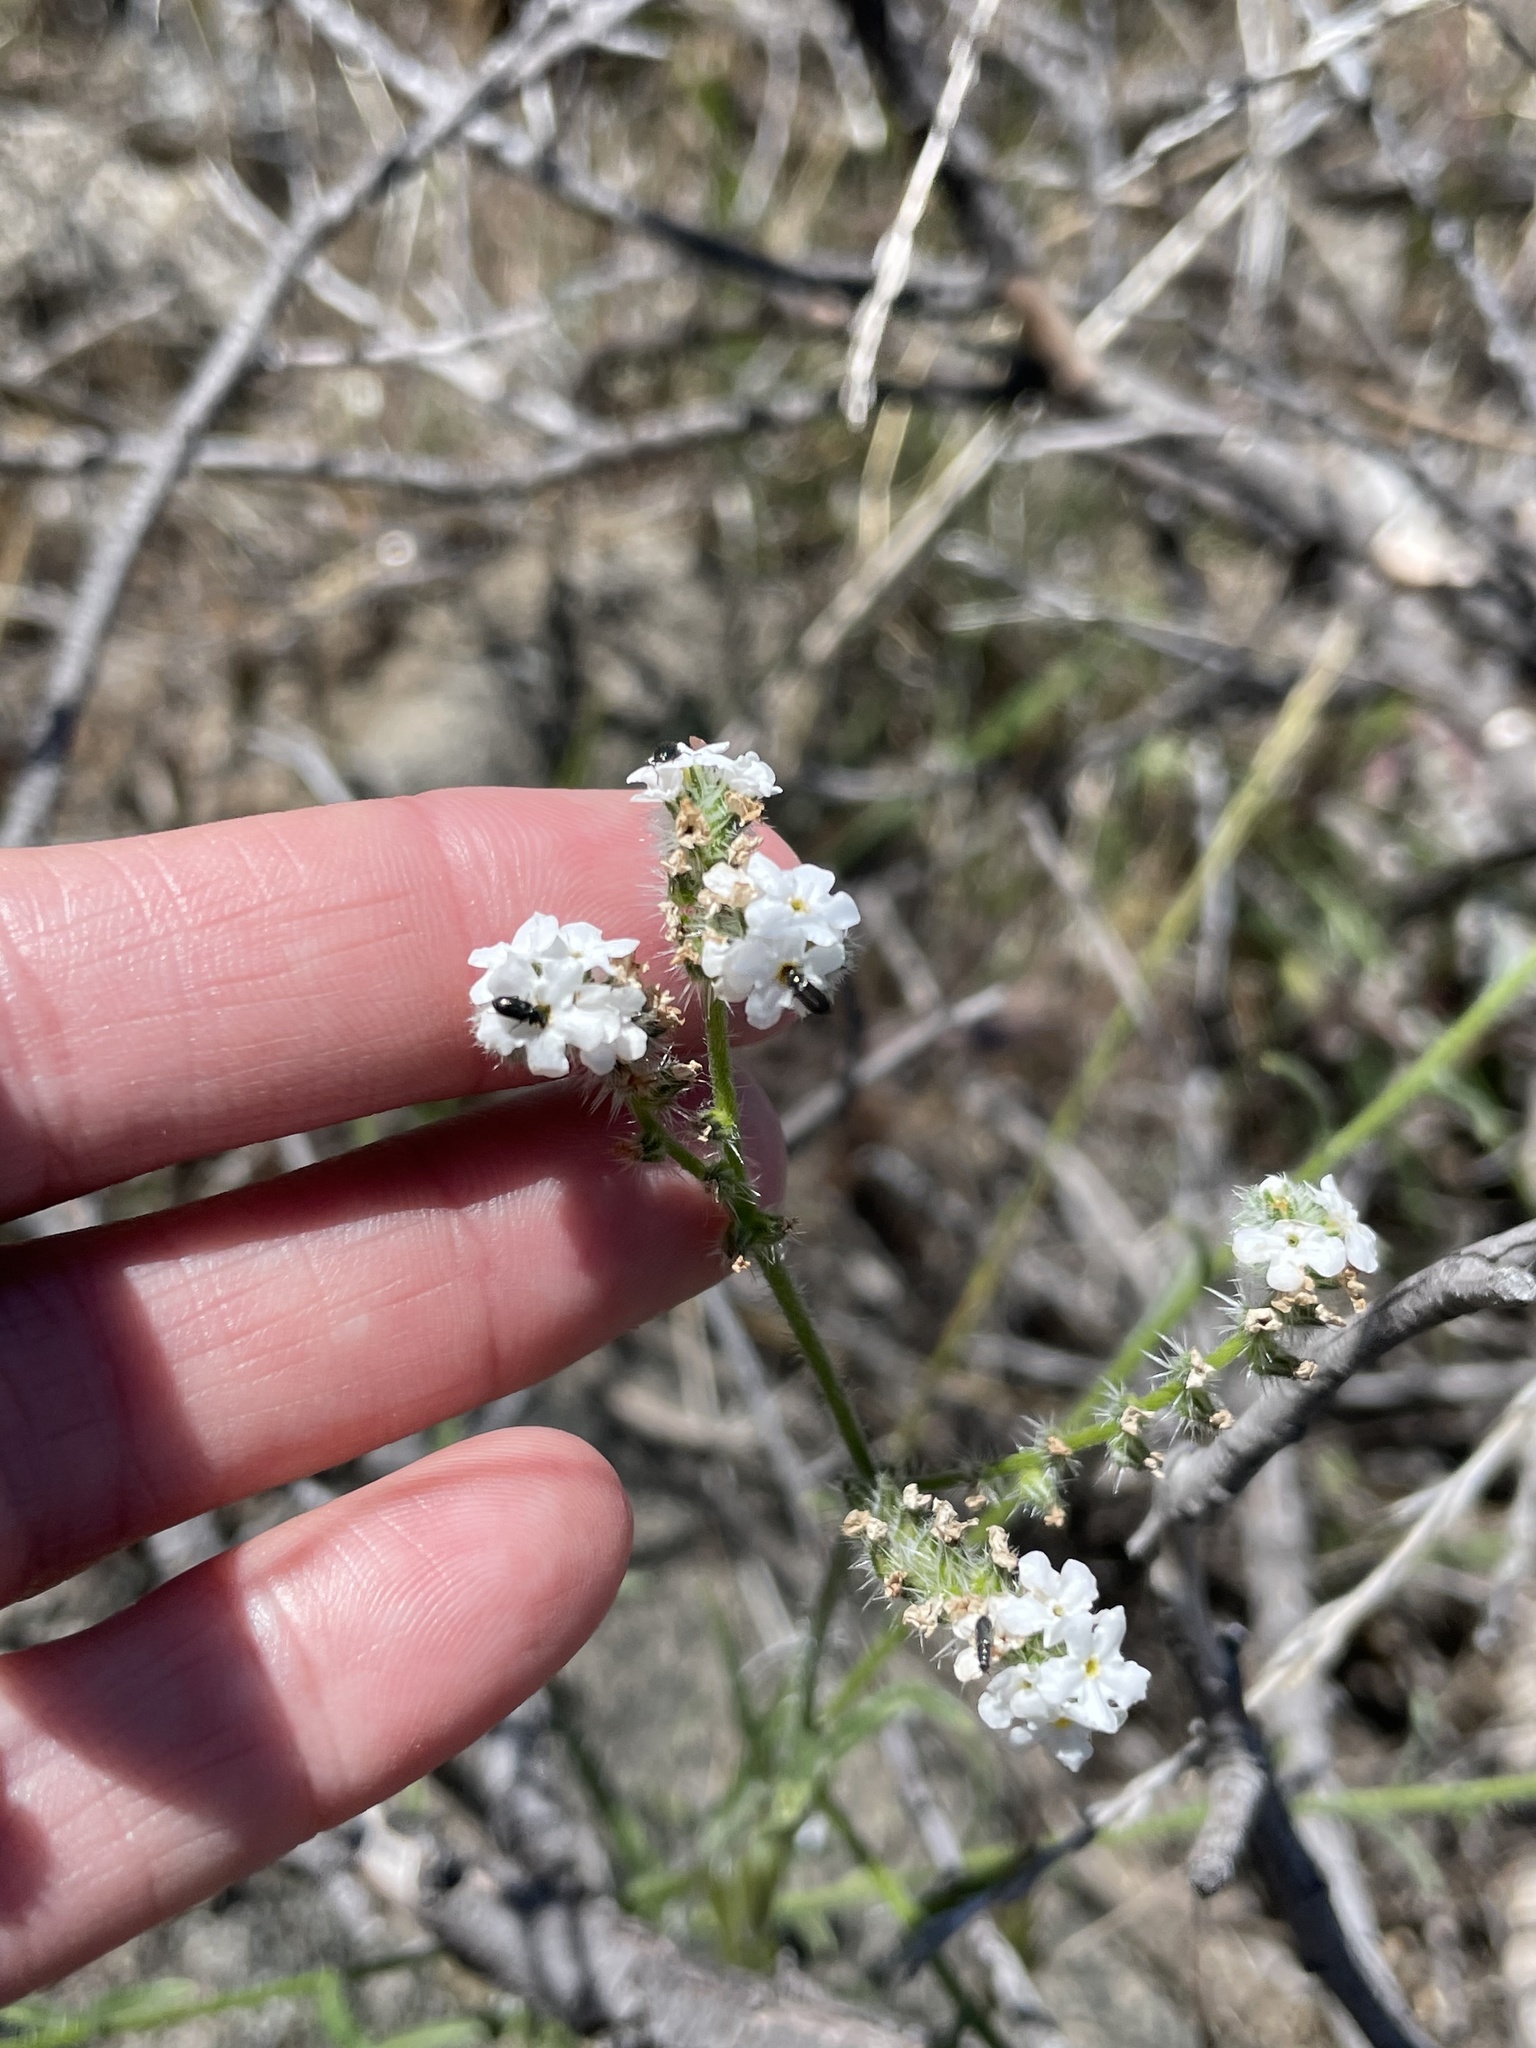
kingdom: Plantae
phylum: Tracheophyta
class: Magnoliopsida
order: Boraginales
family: Boraginaceae
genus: Cryptantha
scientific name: Cryptantha intermedia
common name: Clearwater cryptantha
